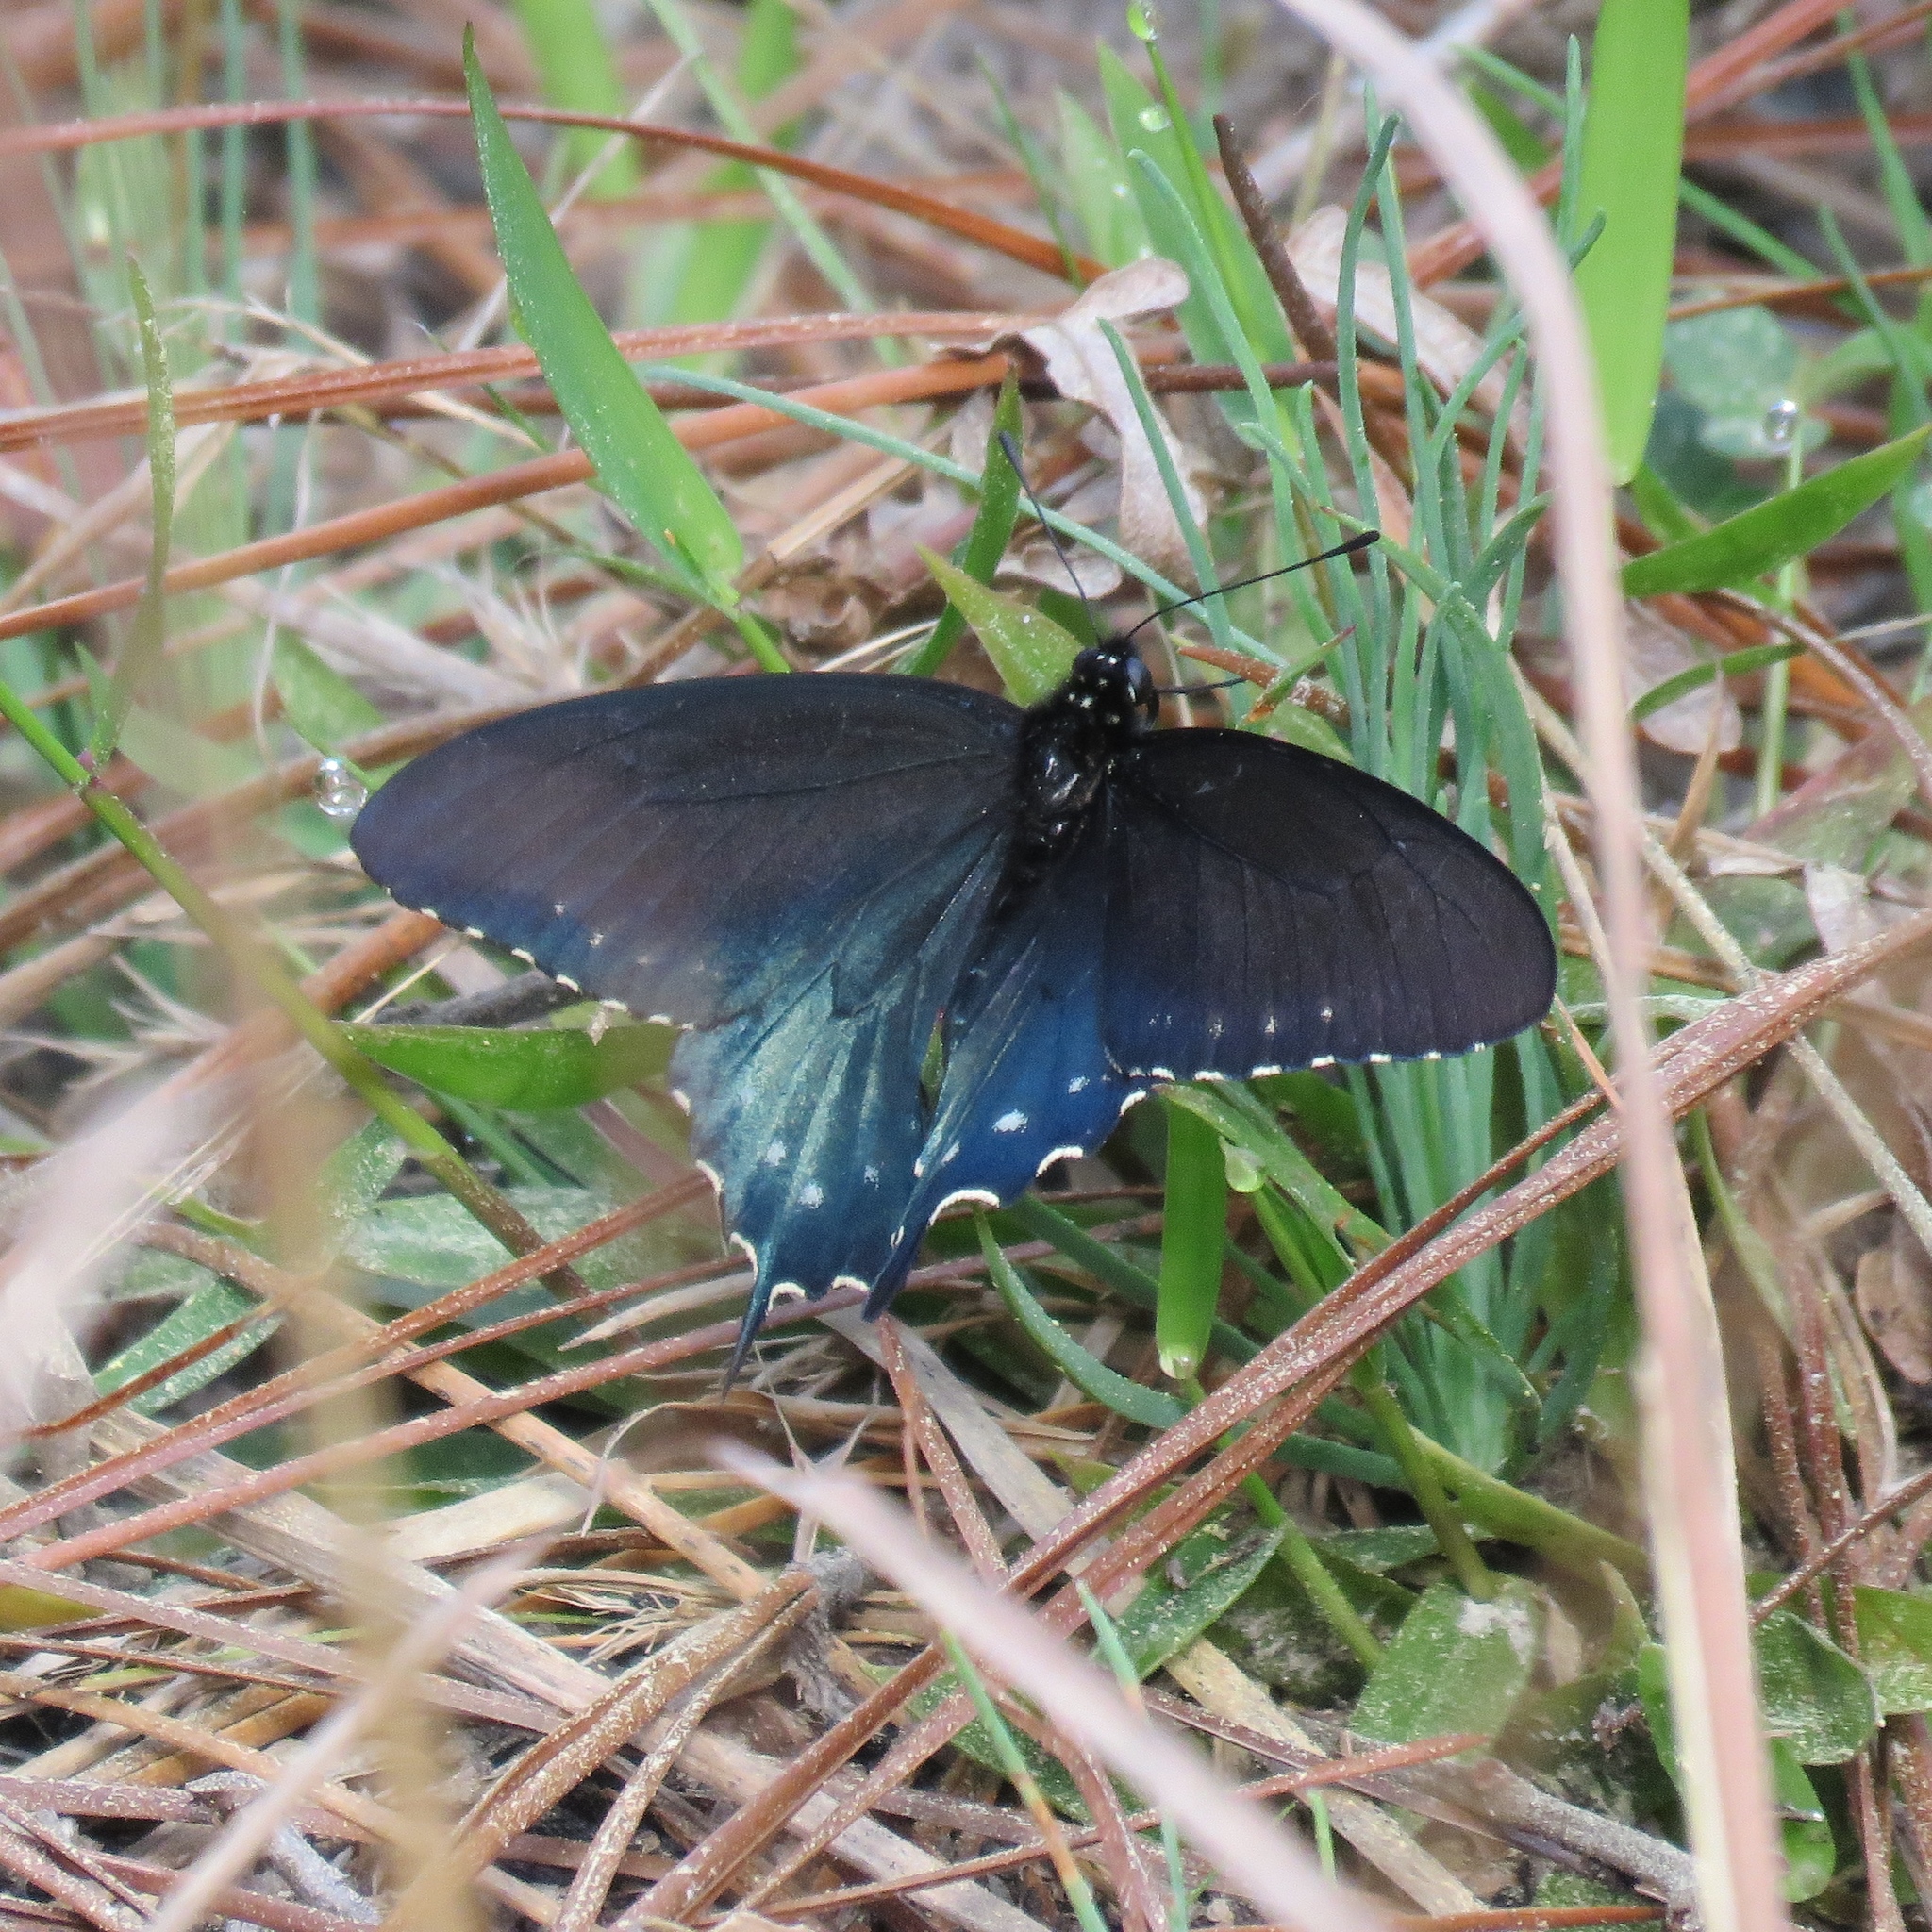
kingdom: Animalia
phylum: Arthropoda
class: Insecta
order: Lepidoptera
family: Papilionidae
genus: Battus
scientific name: Battus philenor
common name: Pipevine swallowtail
